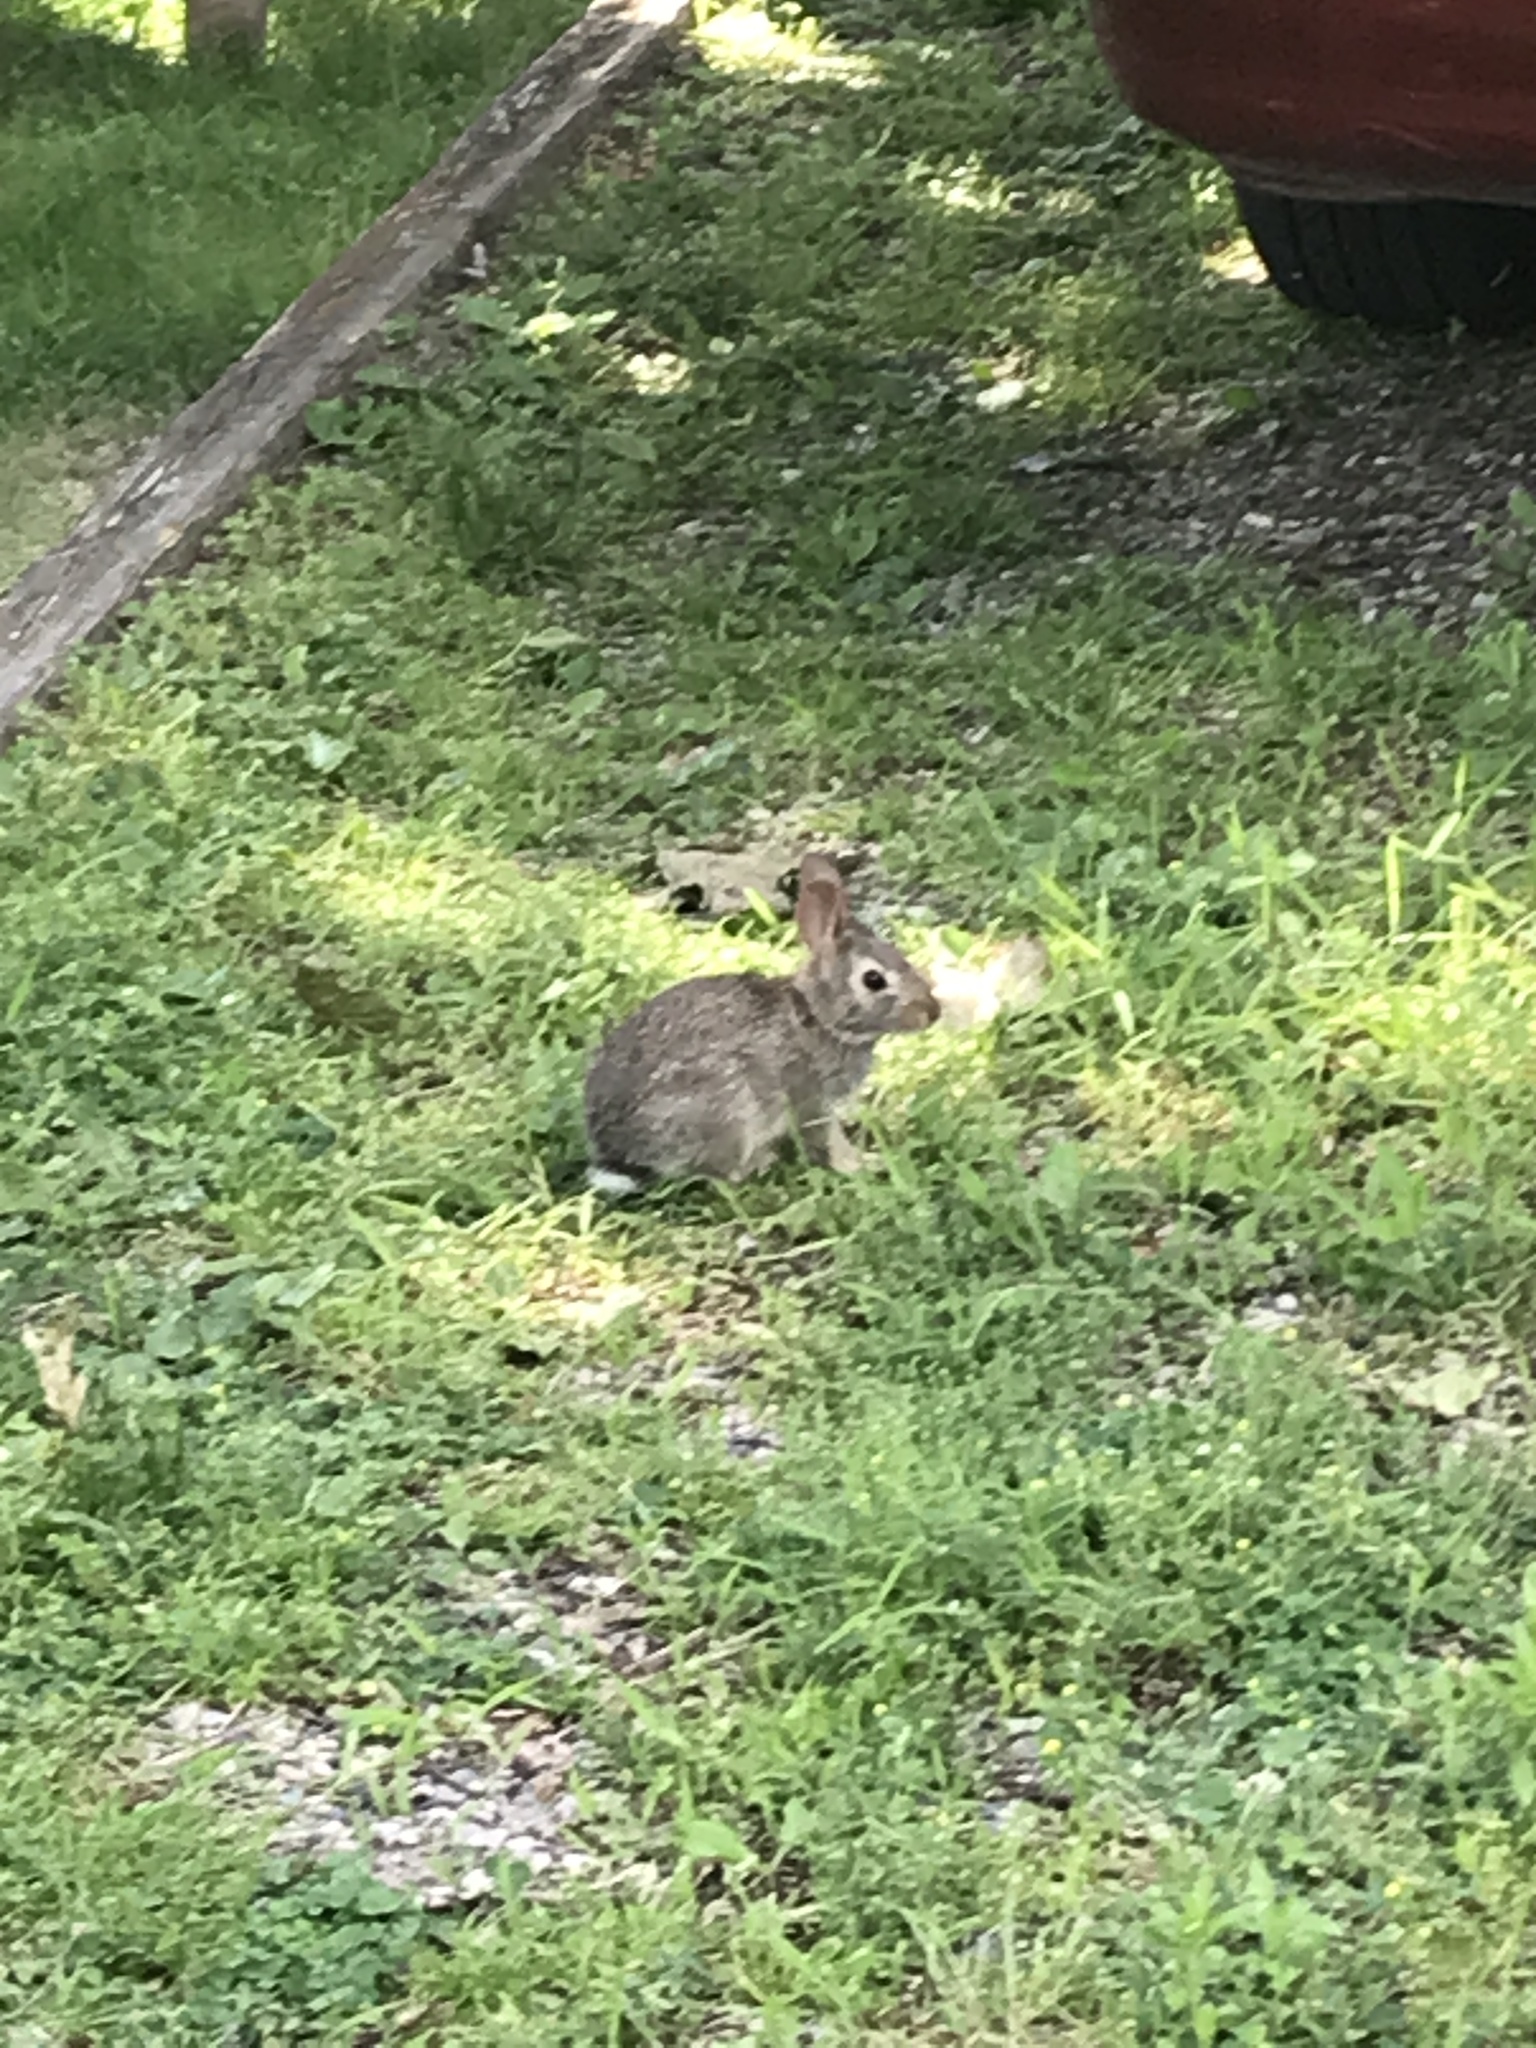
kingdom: Animalia
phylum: Chordata
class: Mammalia
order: Lagomorpha
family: Leporidae
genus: Sylvilagus
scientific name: Sylvilagus floridanus
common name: Eastern cottontail
